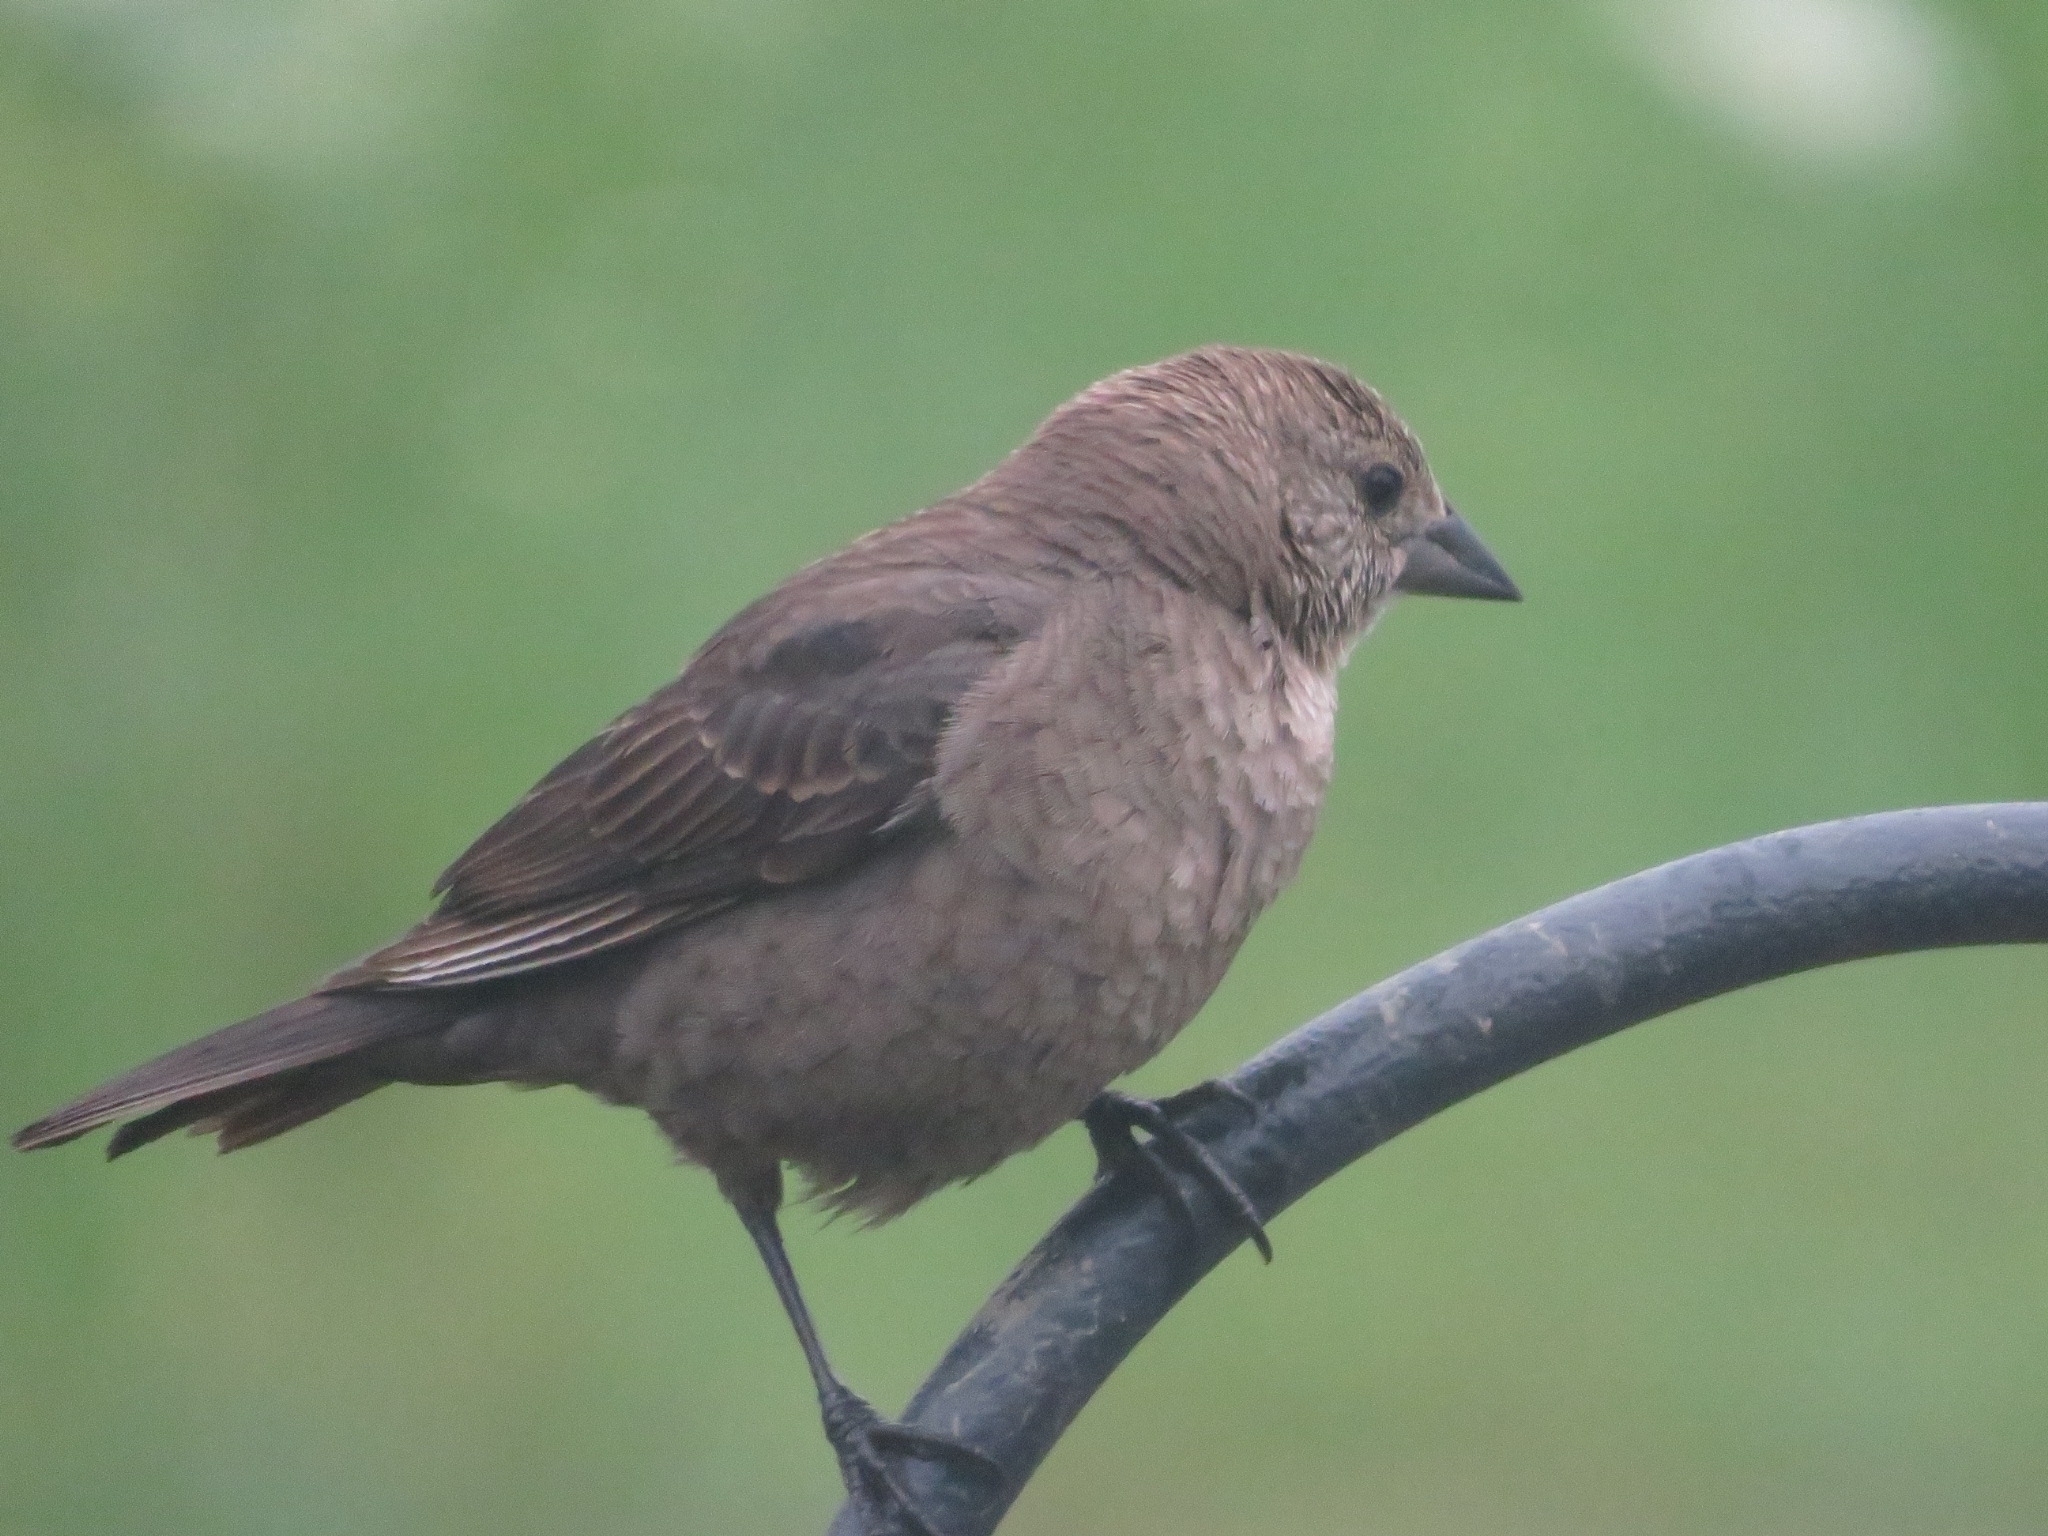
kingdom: Animalia
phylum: Chordata
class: Aves
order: Passeriformes
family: Icteridae
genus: Molothrus
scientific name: Molothrus ater
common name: Brown-headed cowbird
